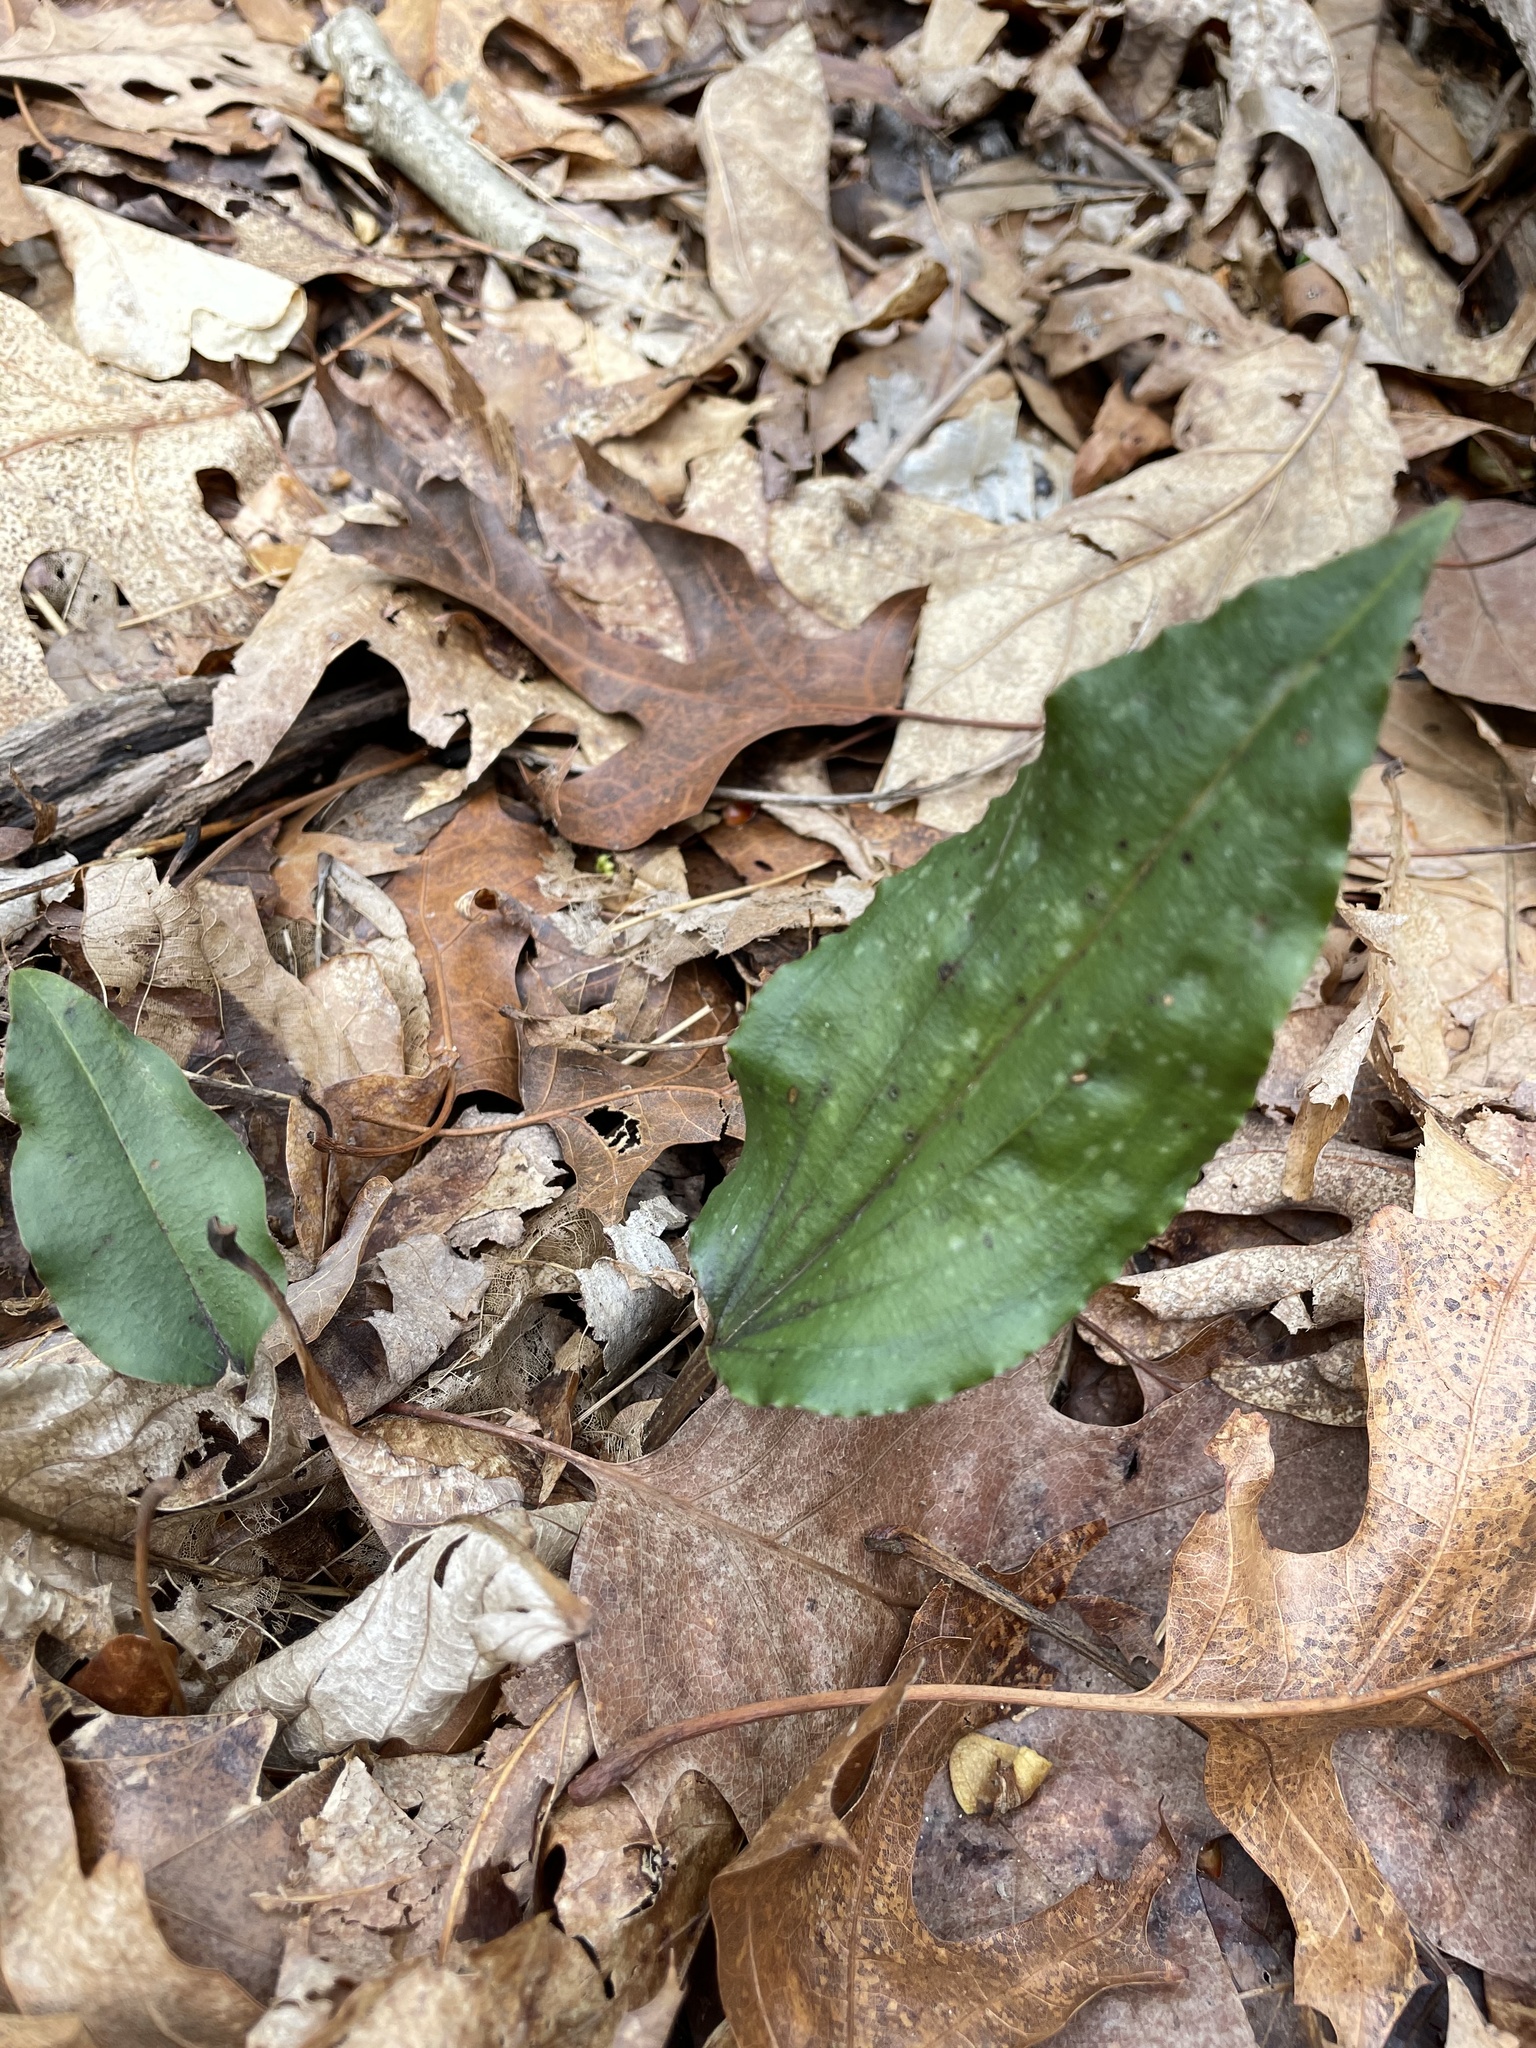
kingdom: Plantae
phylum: Tracheophyta
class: Liliopsida
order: Asparagales
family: Orchidaceae
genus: Tipularia
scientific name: Tipularia discolor
